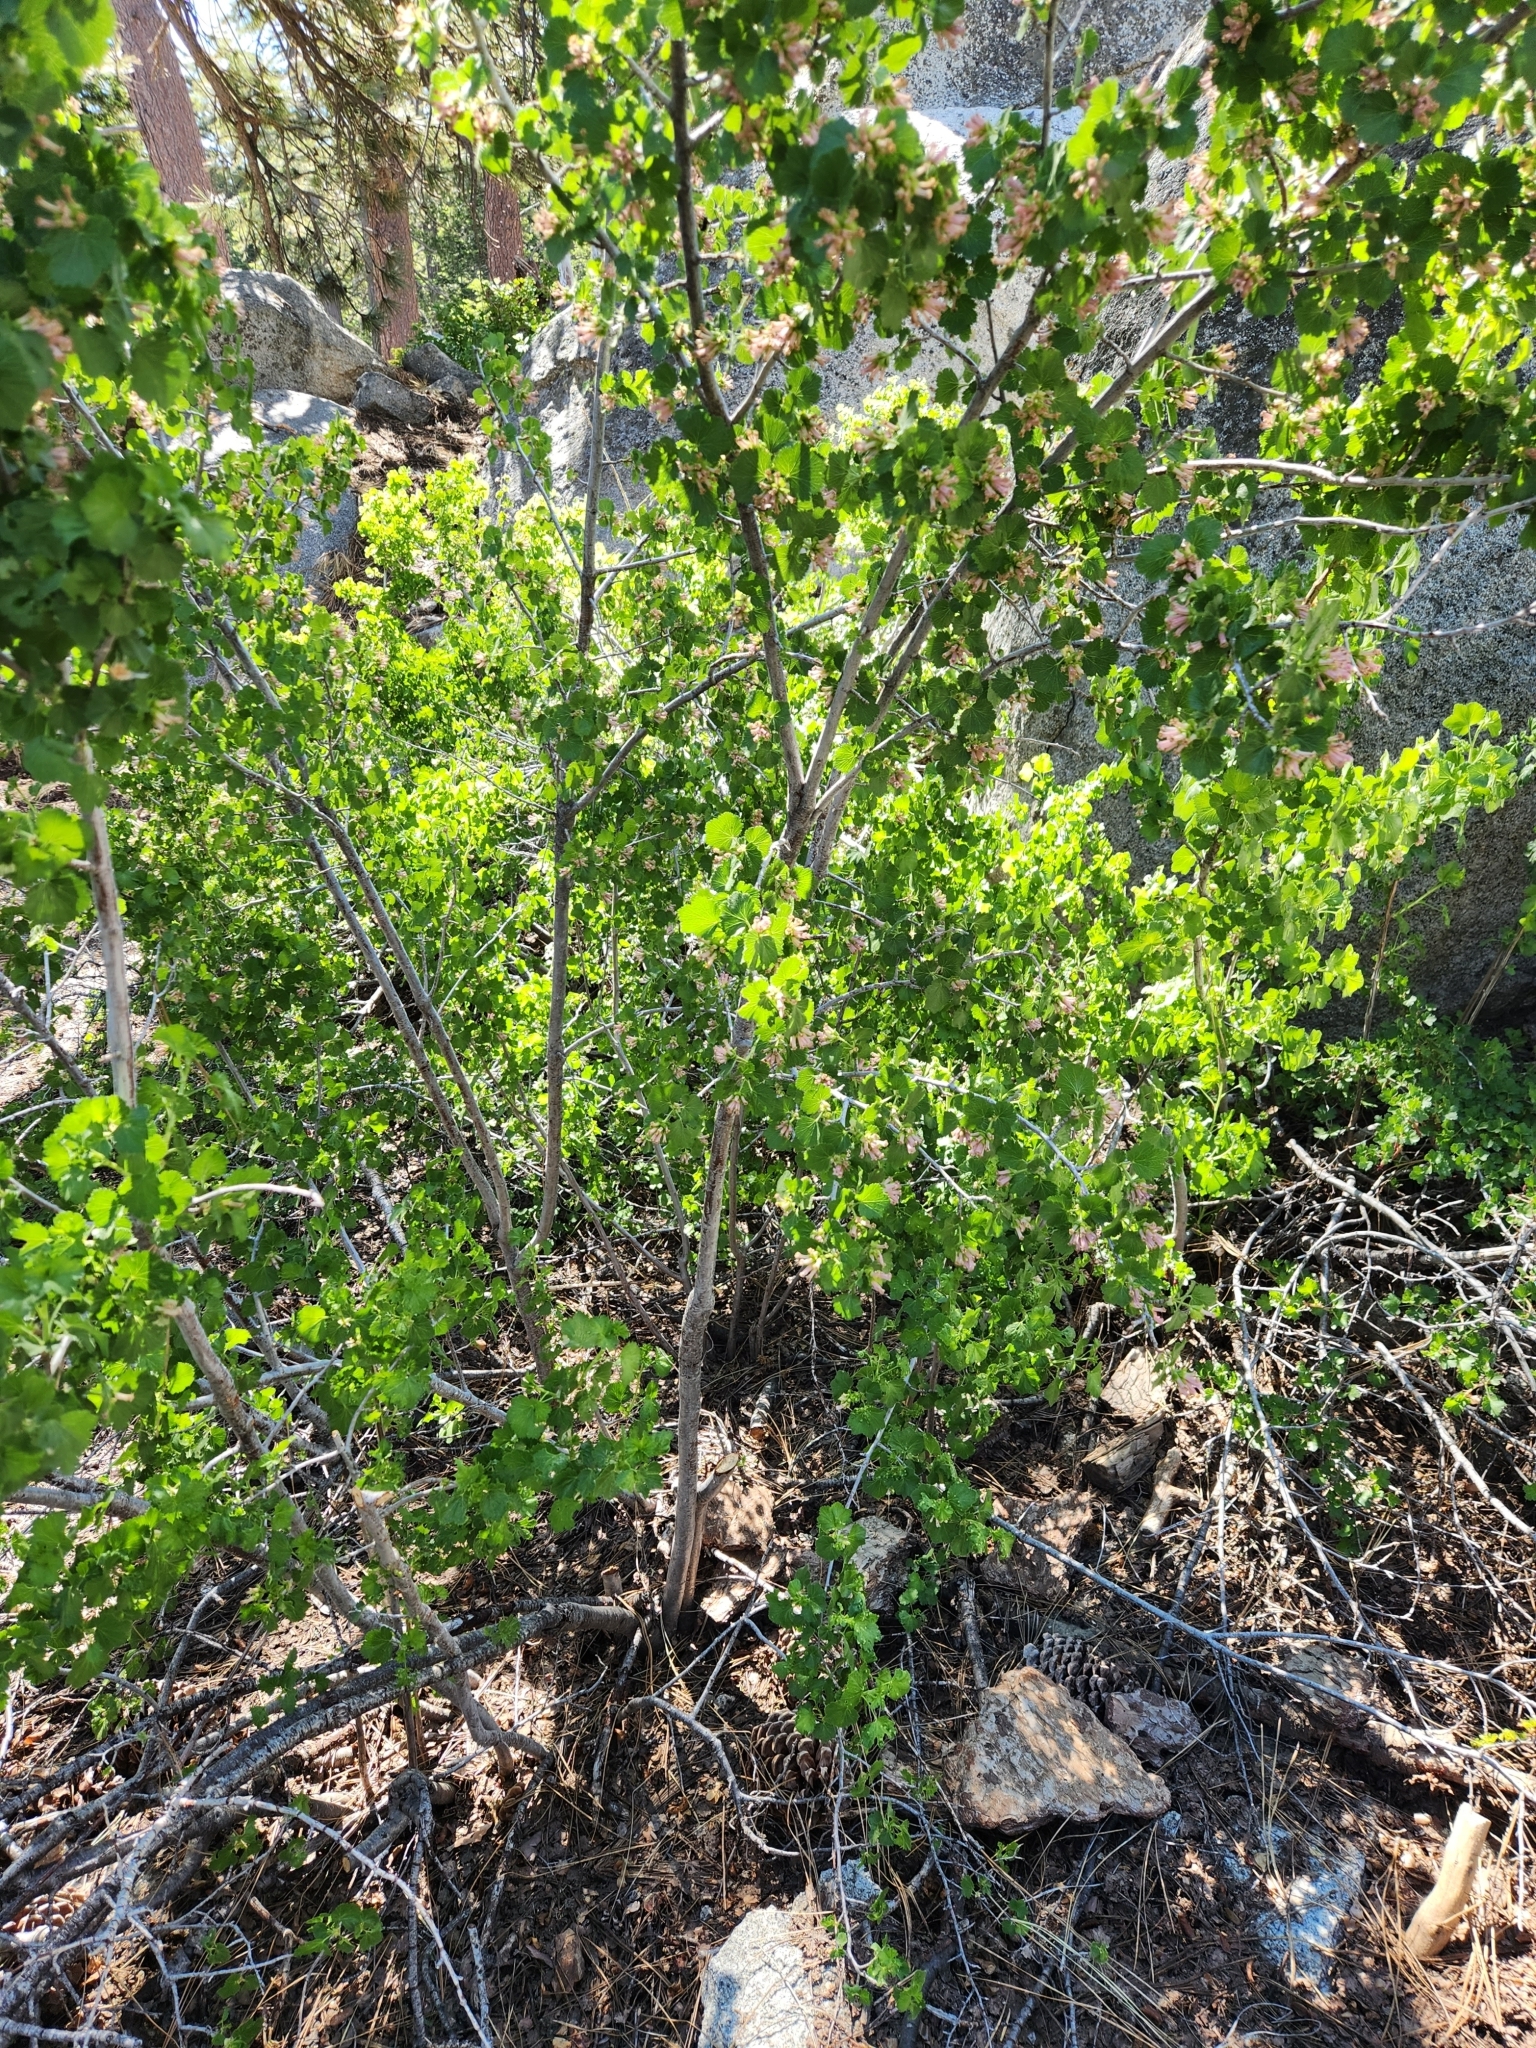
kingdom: Plantae
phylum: Tracheophyta
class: Magnoliopsida
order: Saxifragales
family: Grossulariaceae
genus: Ribes
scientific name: Ribes cereum
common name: Wax currant
